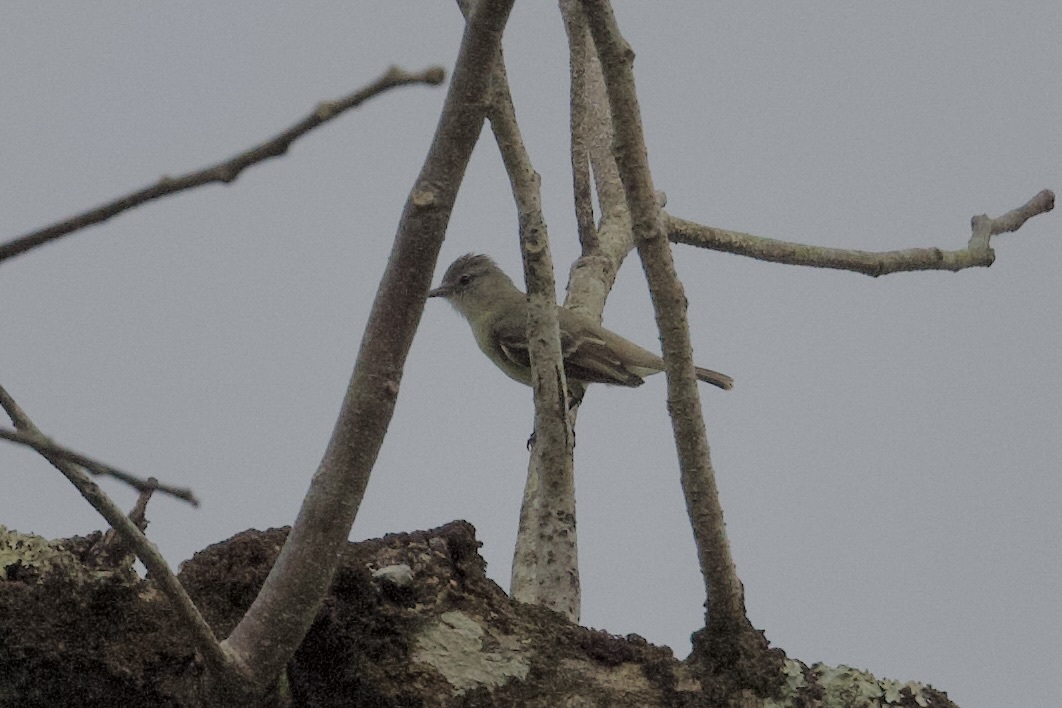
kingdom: Animalia
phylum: Chordata
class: Aves
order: Passeriformes
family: Tyrannidae
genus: Camptostoma
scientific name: Camptostoma obsoletum
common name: Southern beardless-tyrannulet
